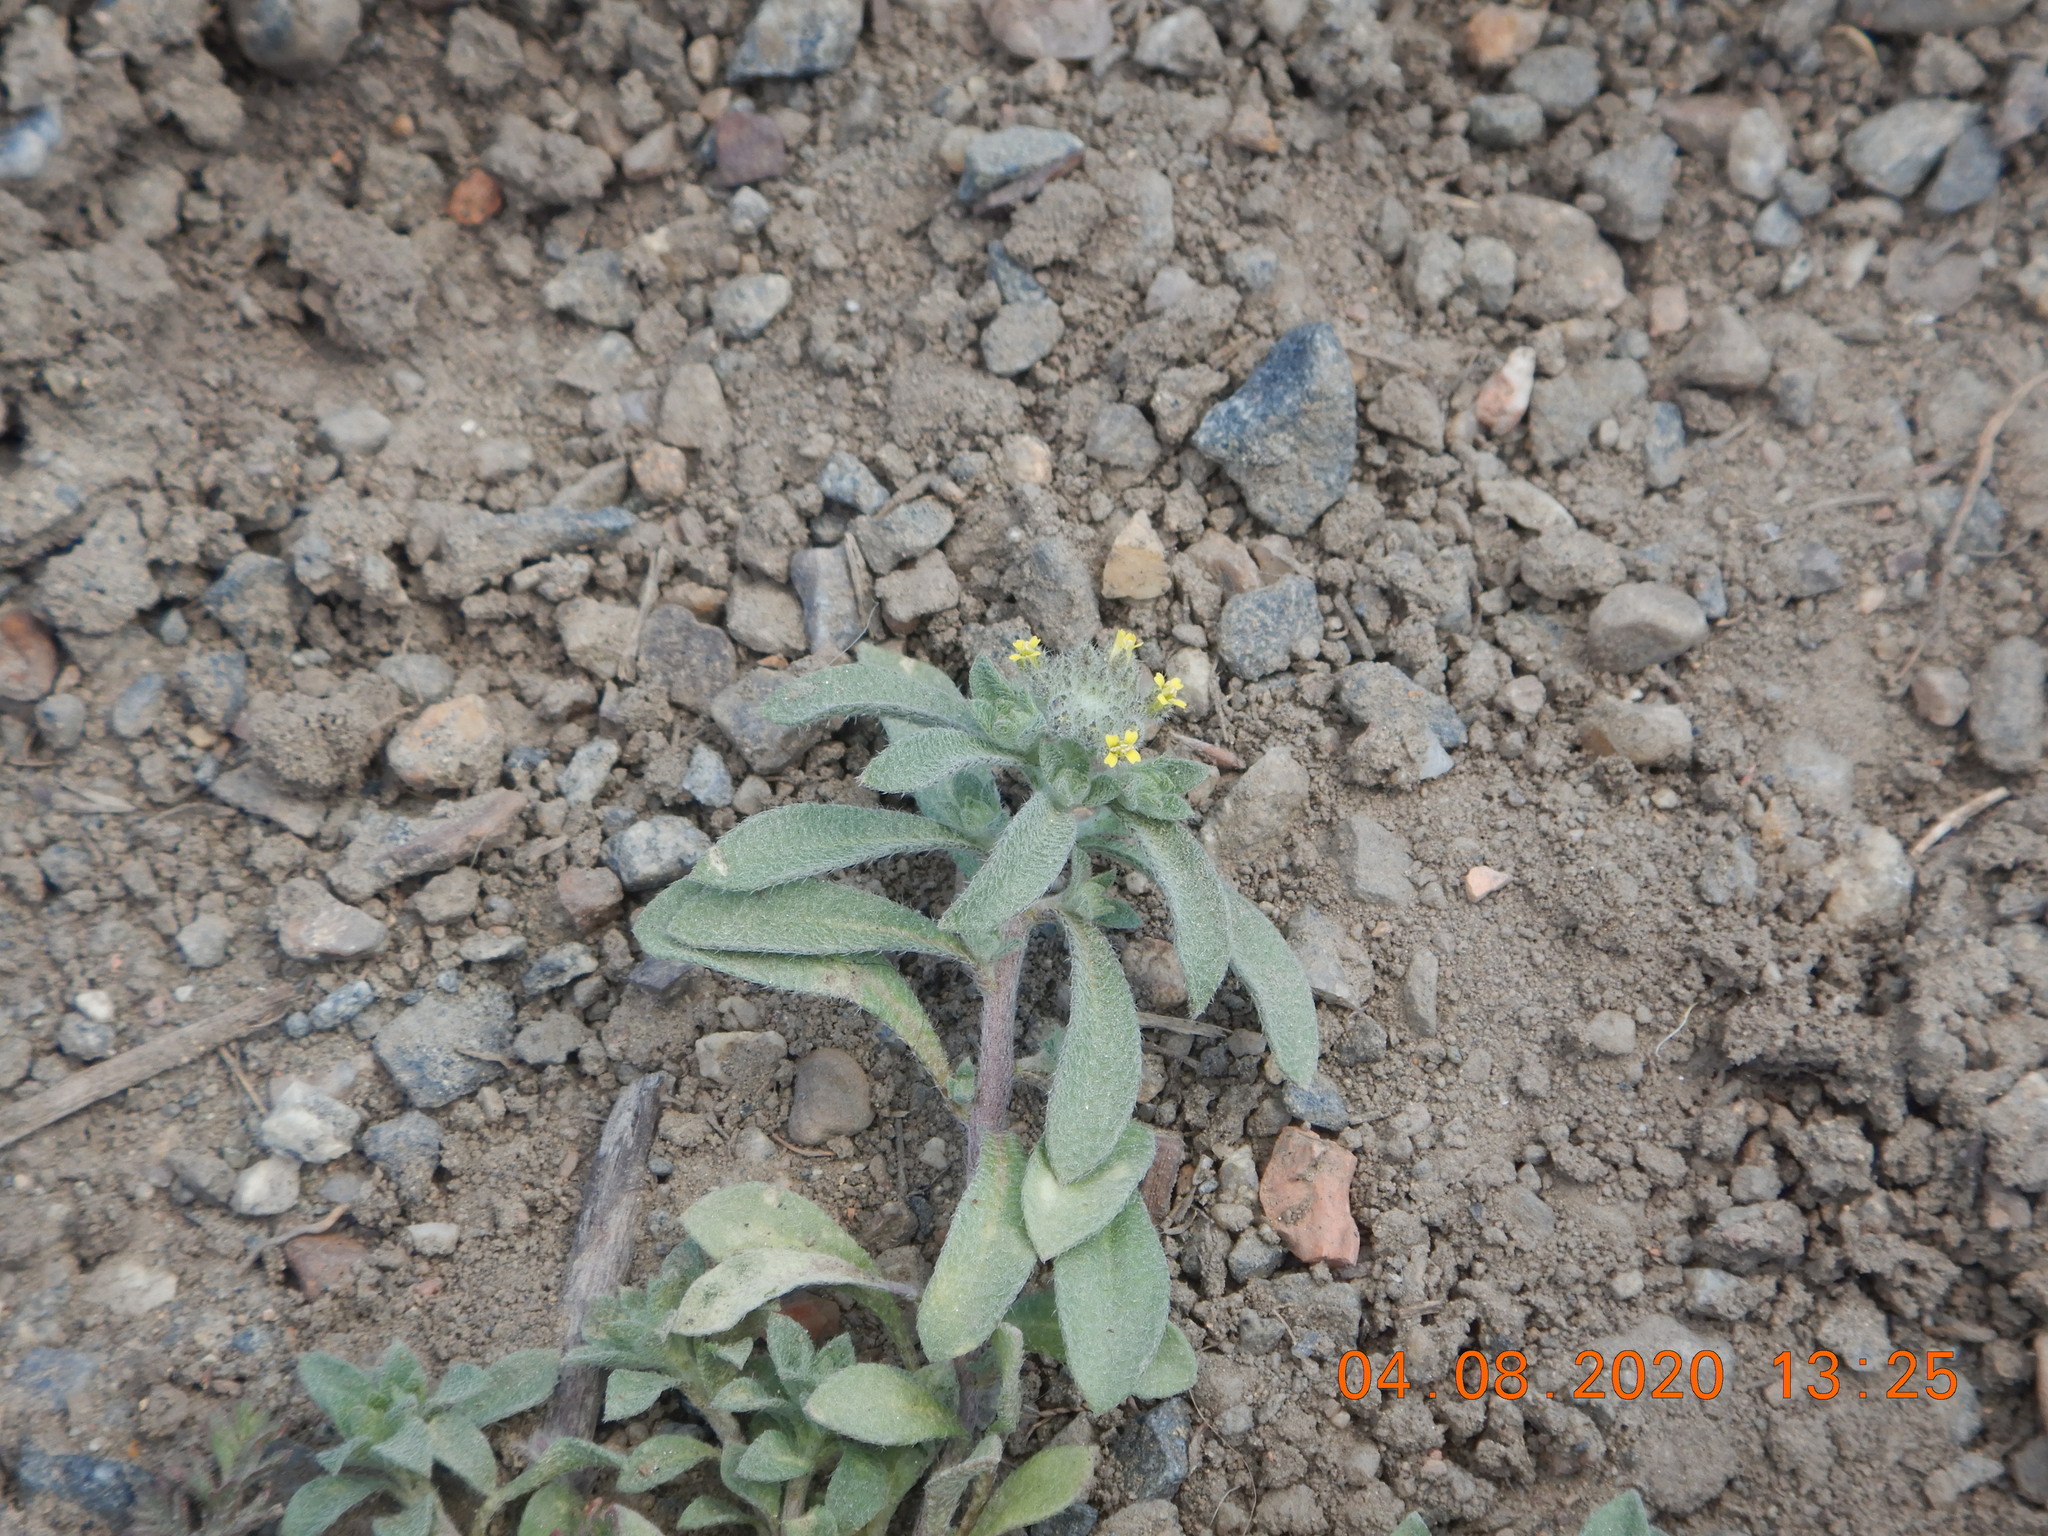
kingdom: Plantae
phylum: Tracheophyta
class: Magnoliopsida
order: Brassicales
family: Brassicaceae
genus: Alyssum
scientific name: Alyssum turkestanicum
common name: Desert alyssum
